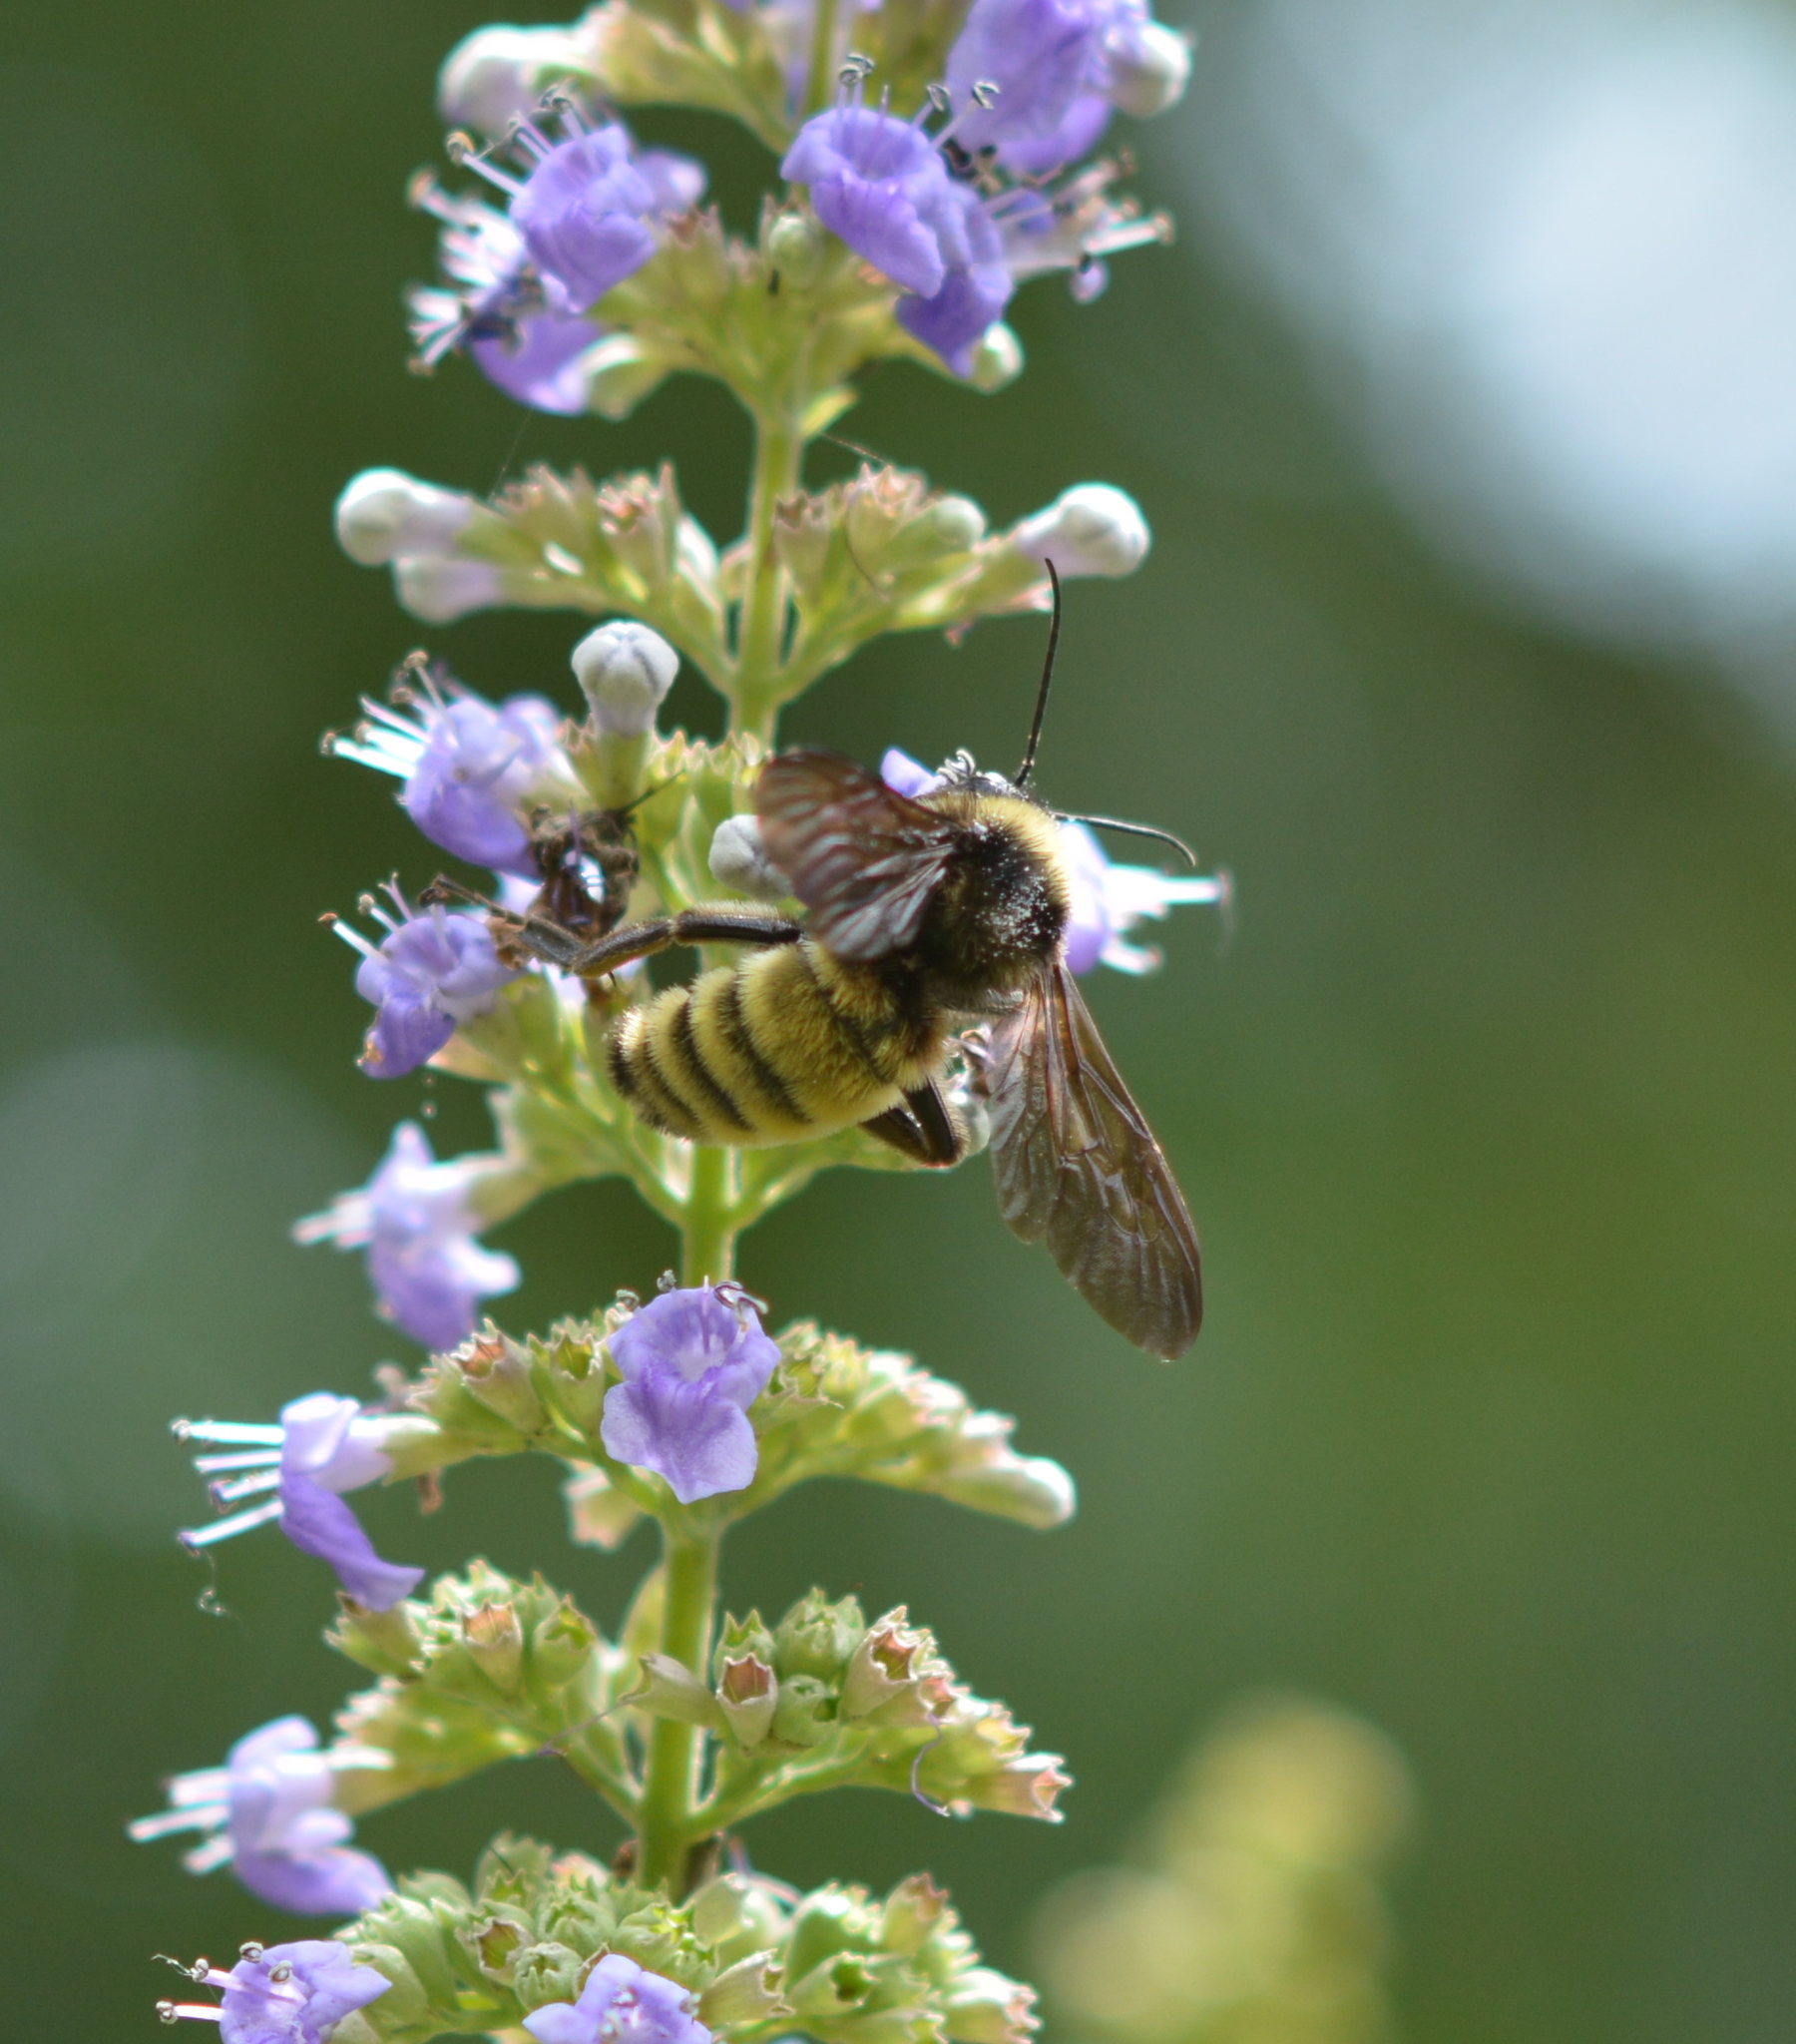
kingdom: Animalia
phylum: Arthropoda
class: Insecta
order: Hymenoptera
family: Apidae
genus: Bombus
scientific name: Bombus pensylvanicus
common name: Bumble bee
